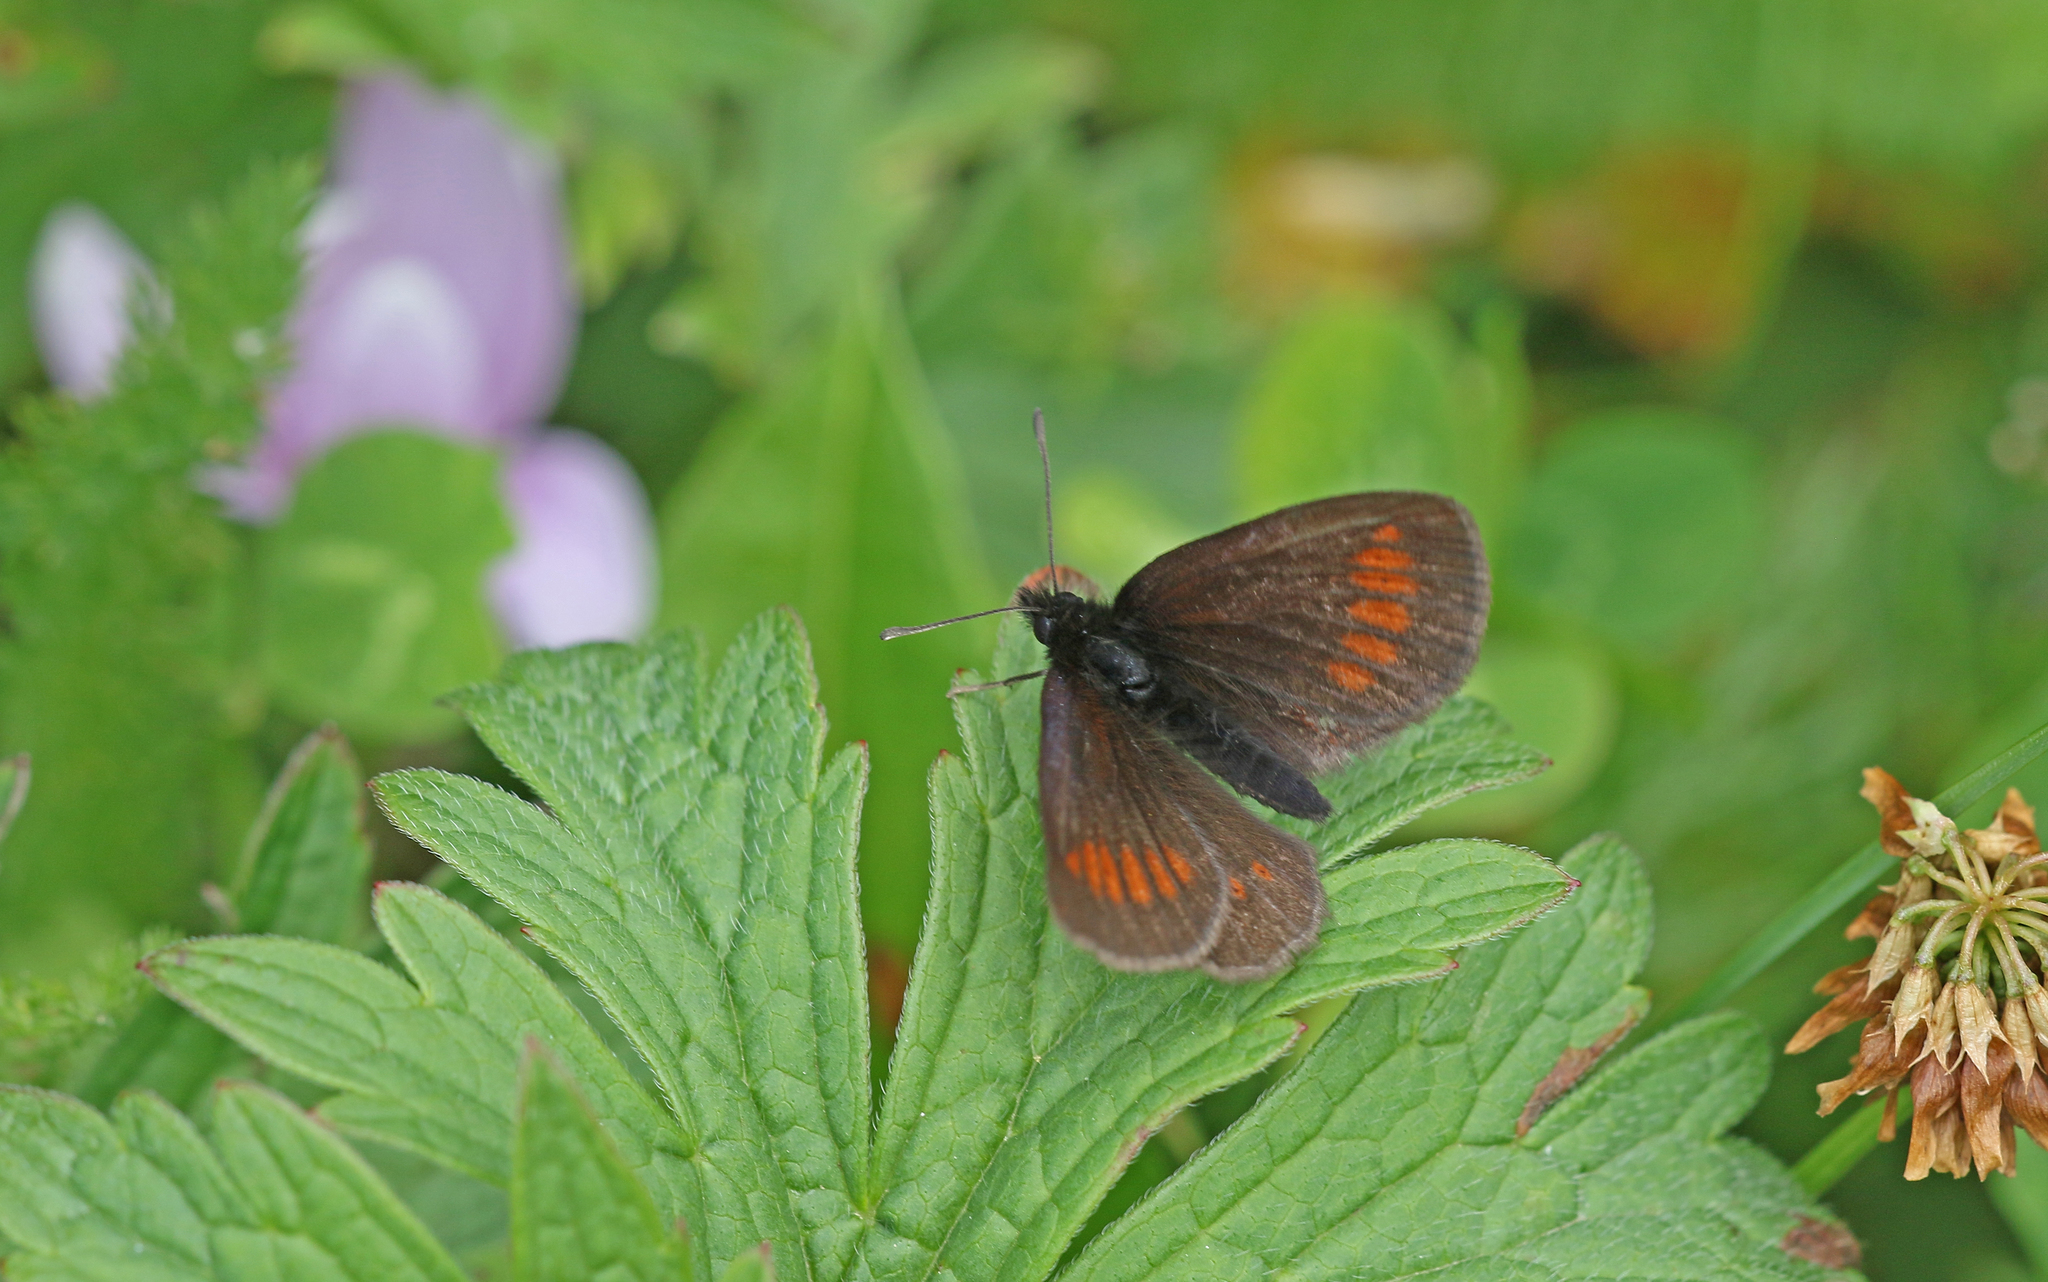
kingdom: Animalia
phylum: Arthropoda
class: Insecta
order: Lepidoptera
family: Nymphalidae
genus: Erebia
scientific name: Erebia melampus
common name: Lesser mountain ringlet
